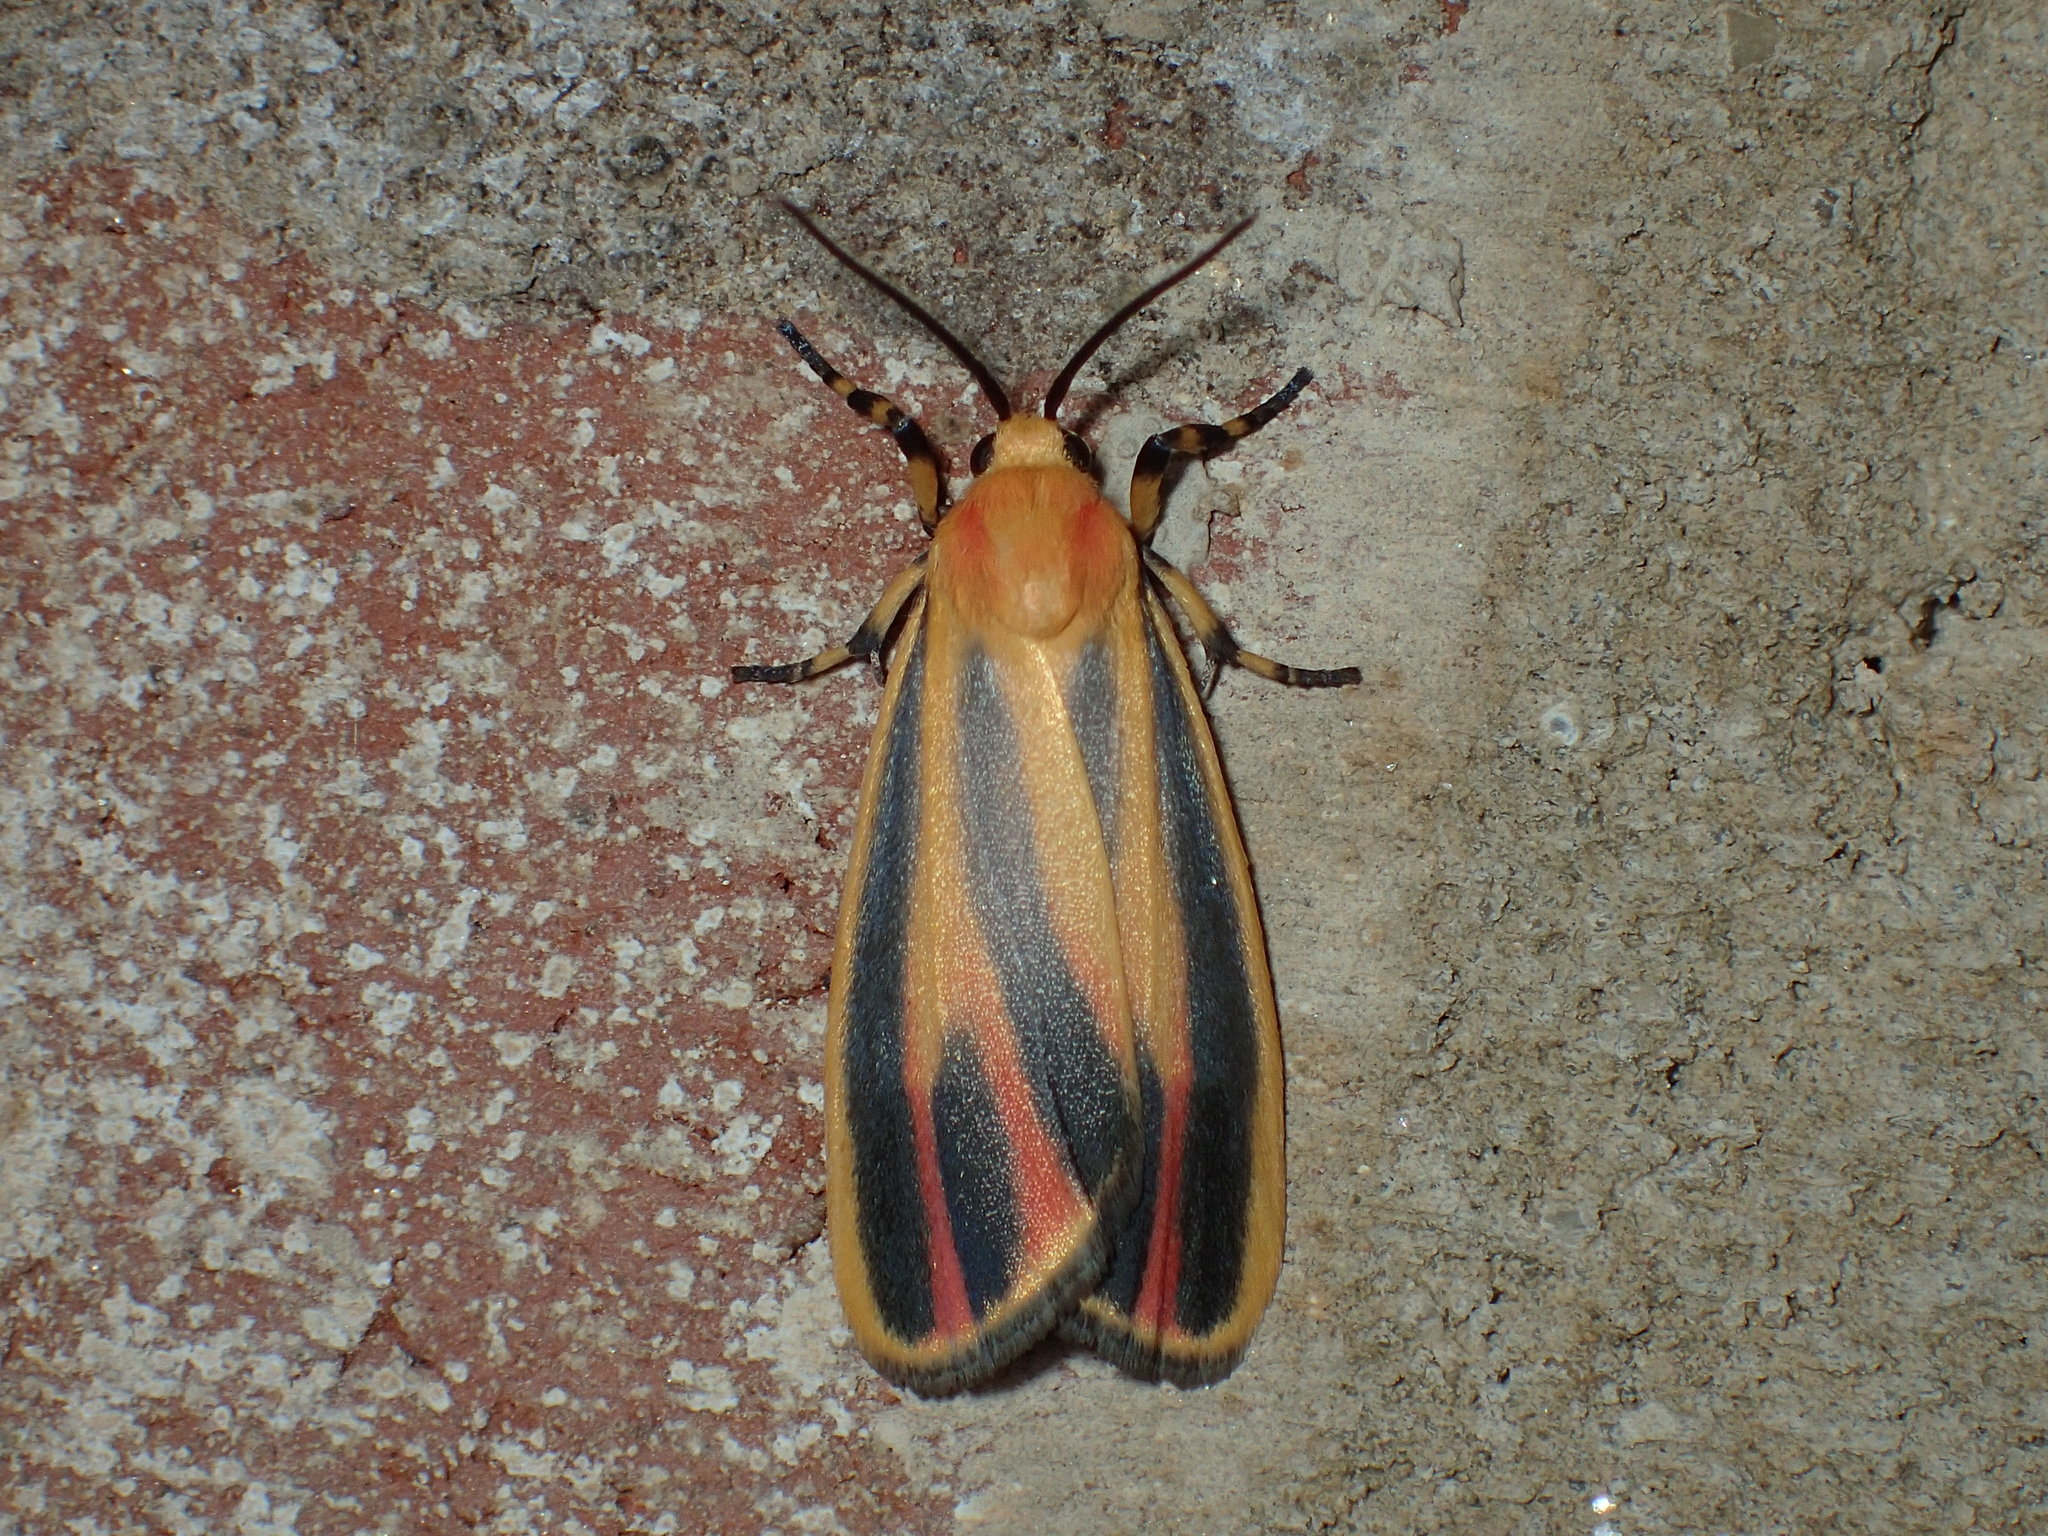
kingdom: Animalia
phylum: Arthropoda
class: Insecta
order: Lepidoptera
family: Erebidae
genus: Hypoprepia
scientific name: Hypoprepia fucosa
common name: Painted lichen moth
